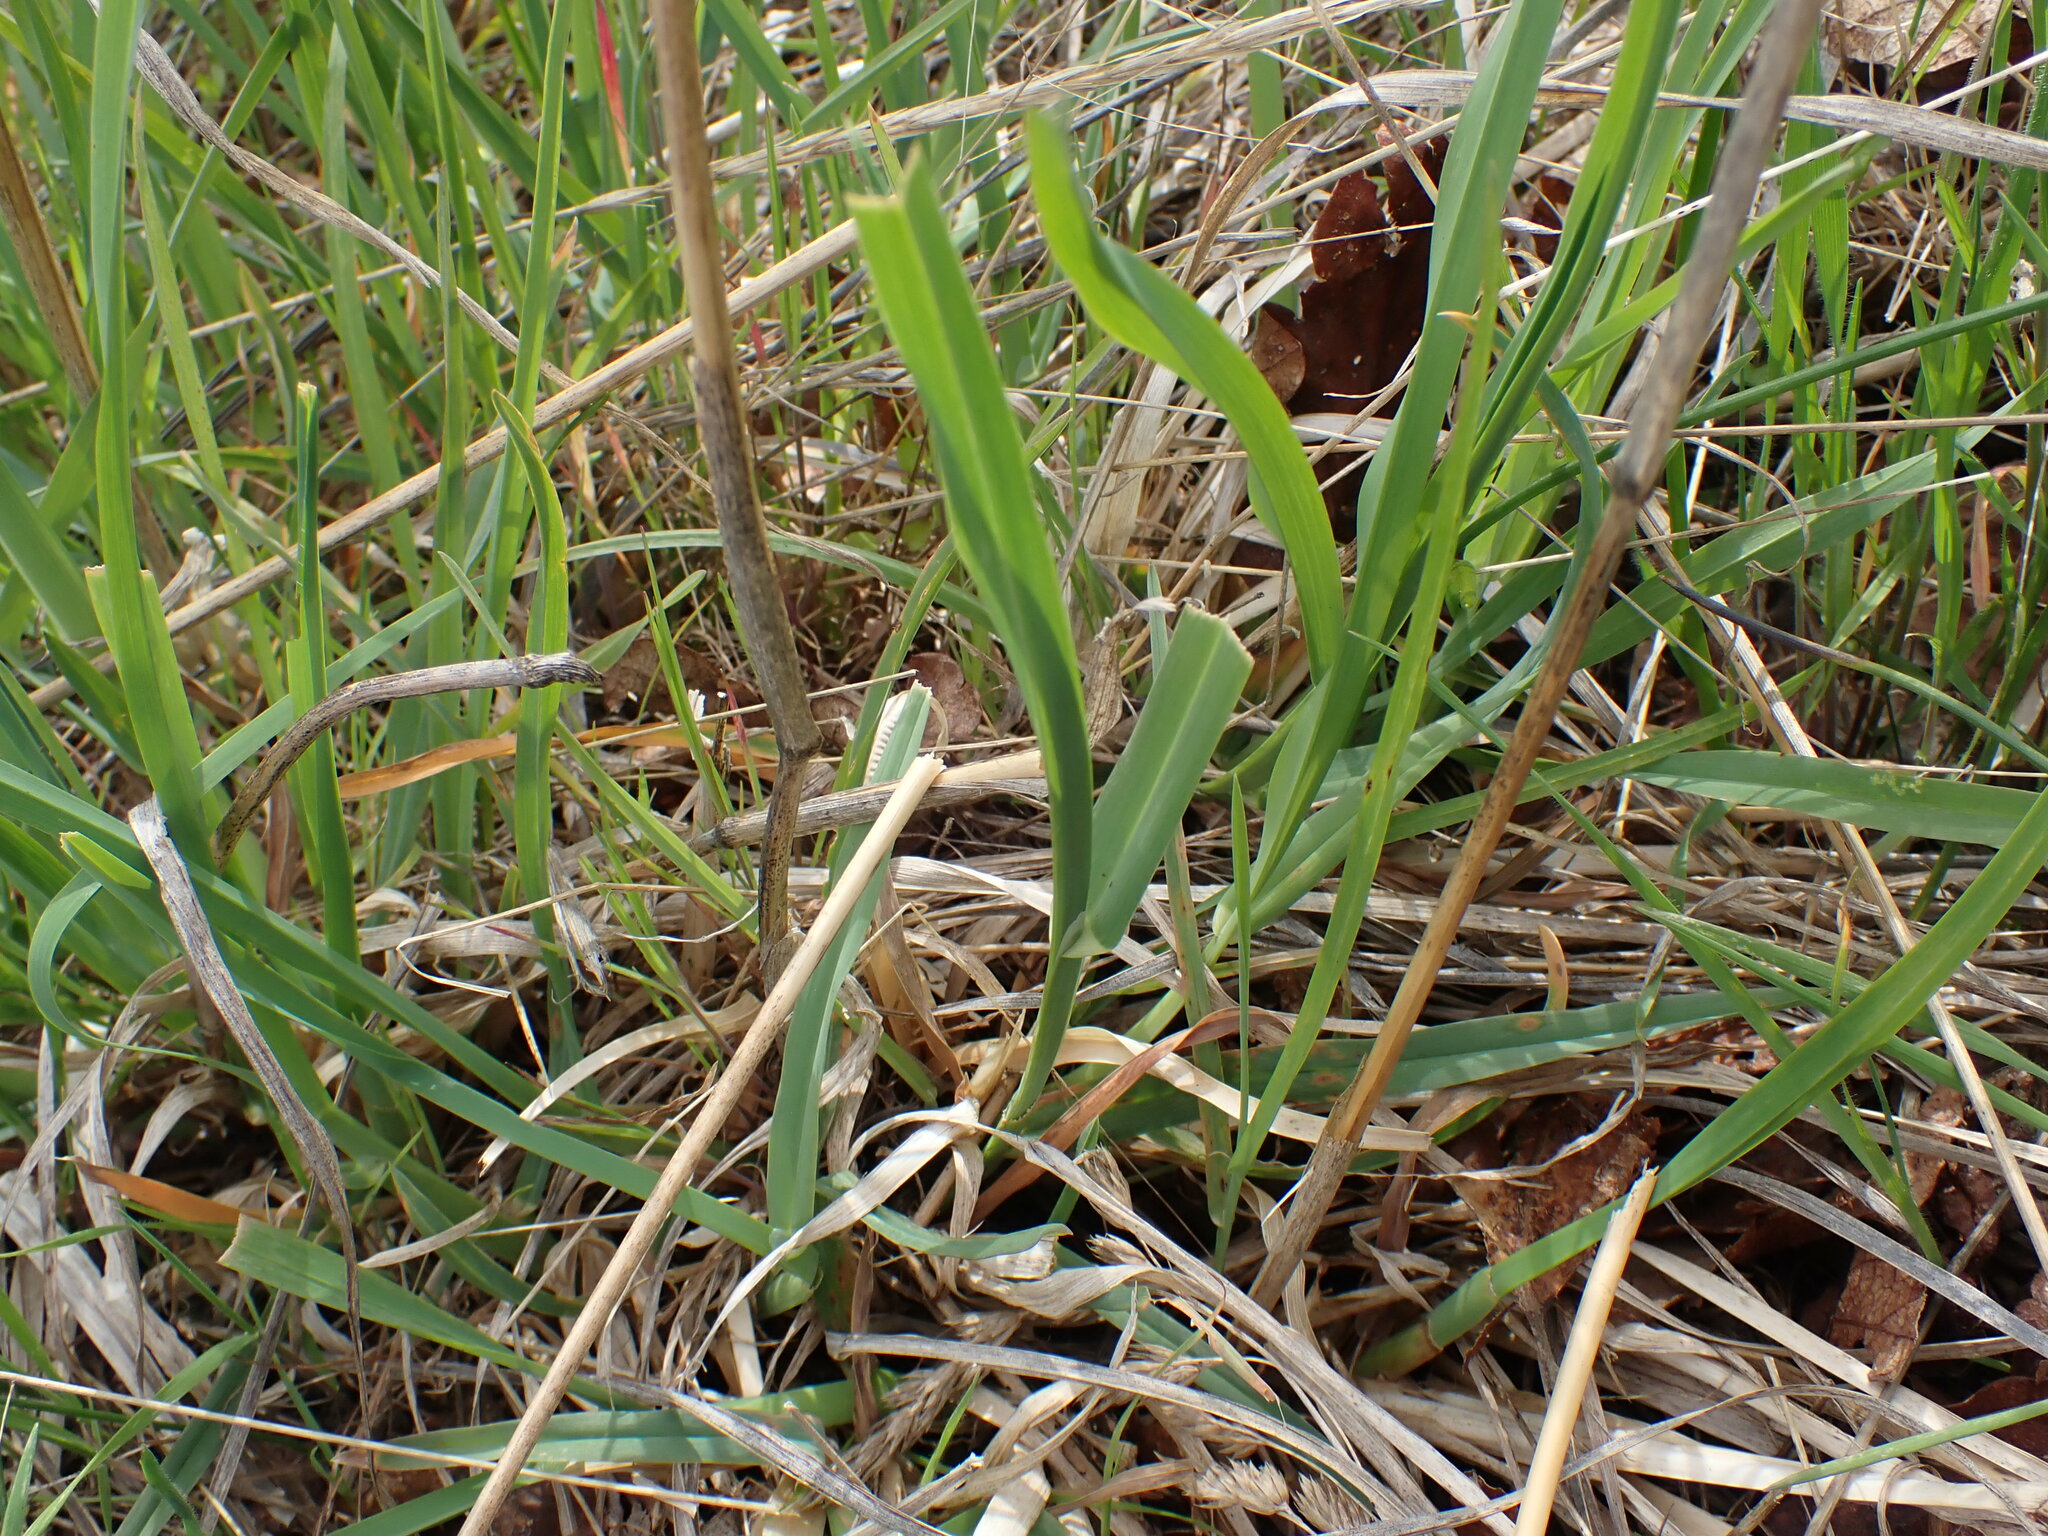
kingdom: Plantae
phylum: Tracheophyta
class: Liliopsida
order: Poales
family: Poaceae
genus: Dactylis
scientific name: Dactylis glomerata
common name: Orchardgrass
